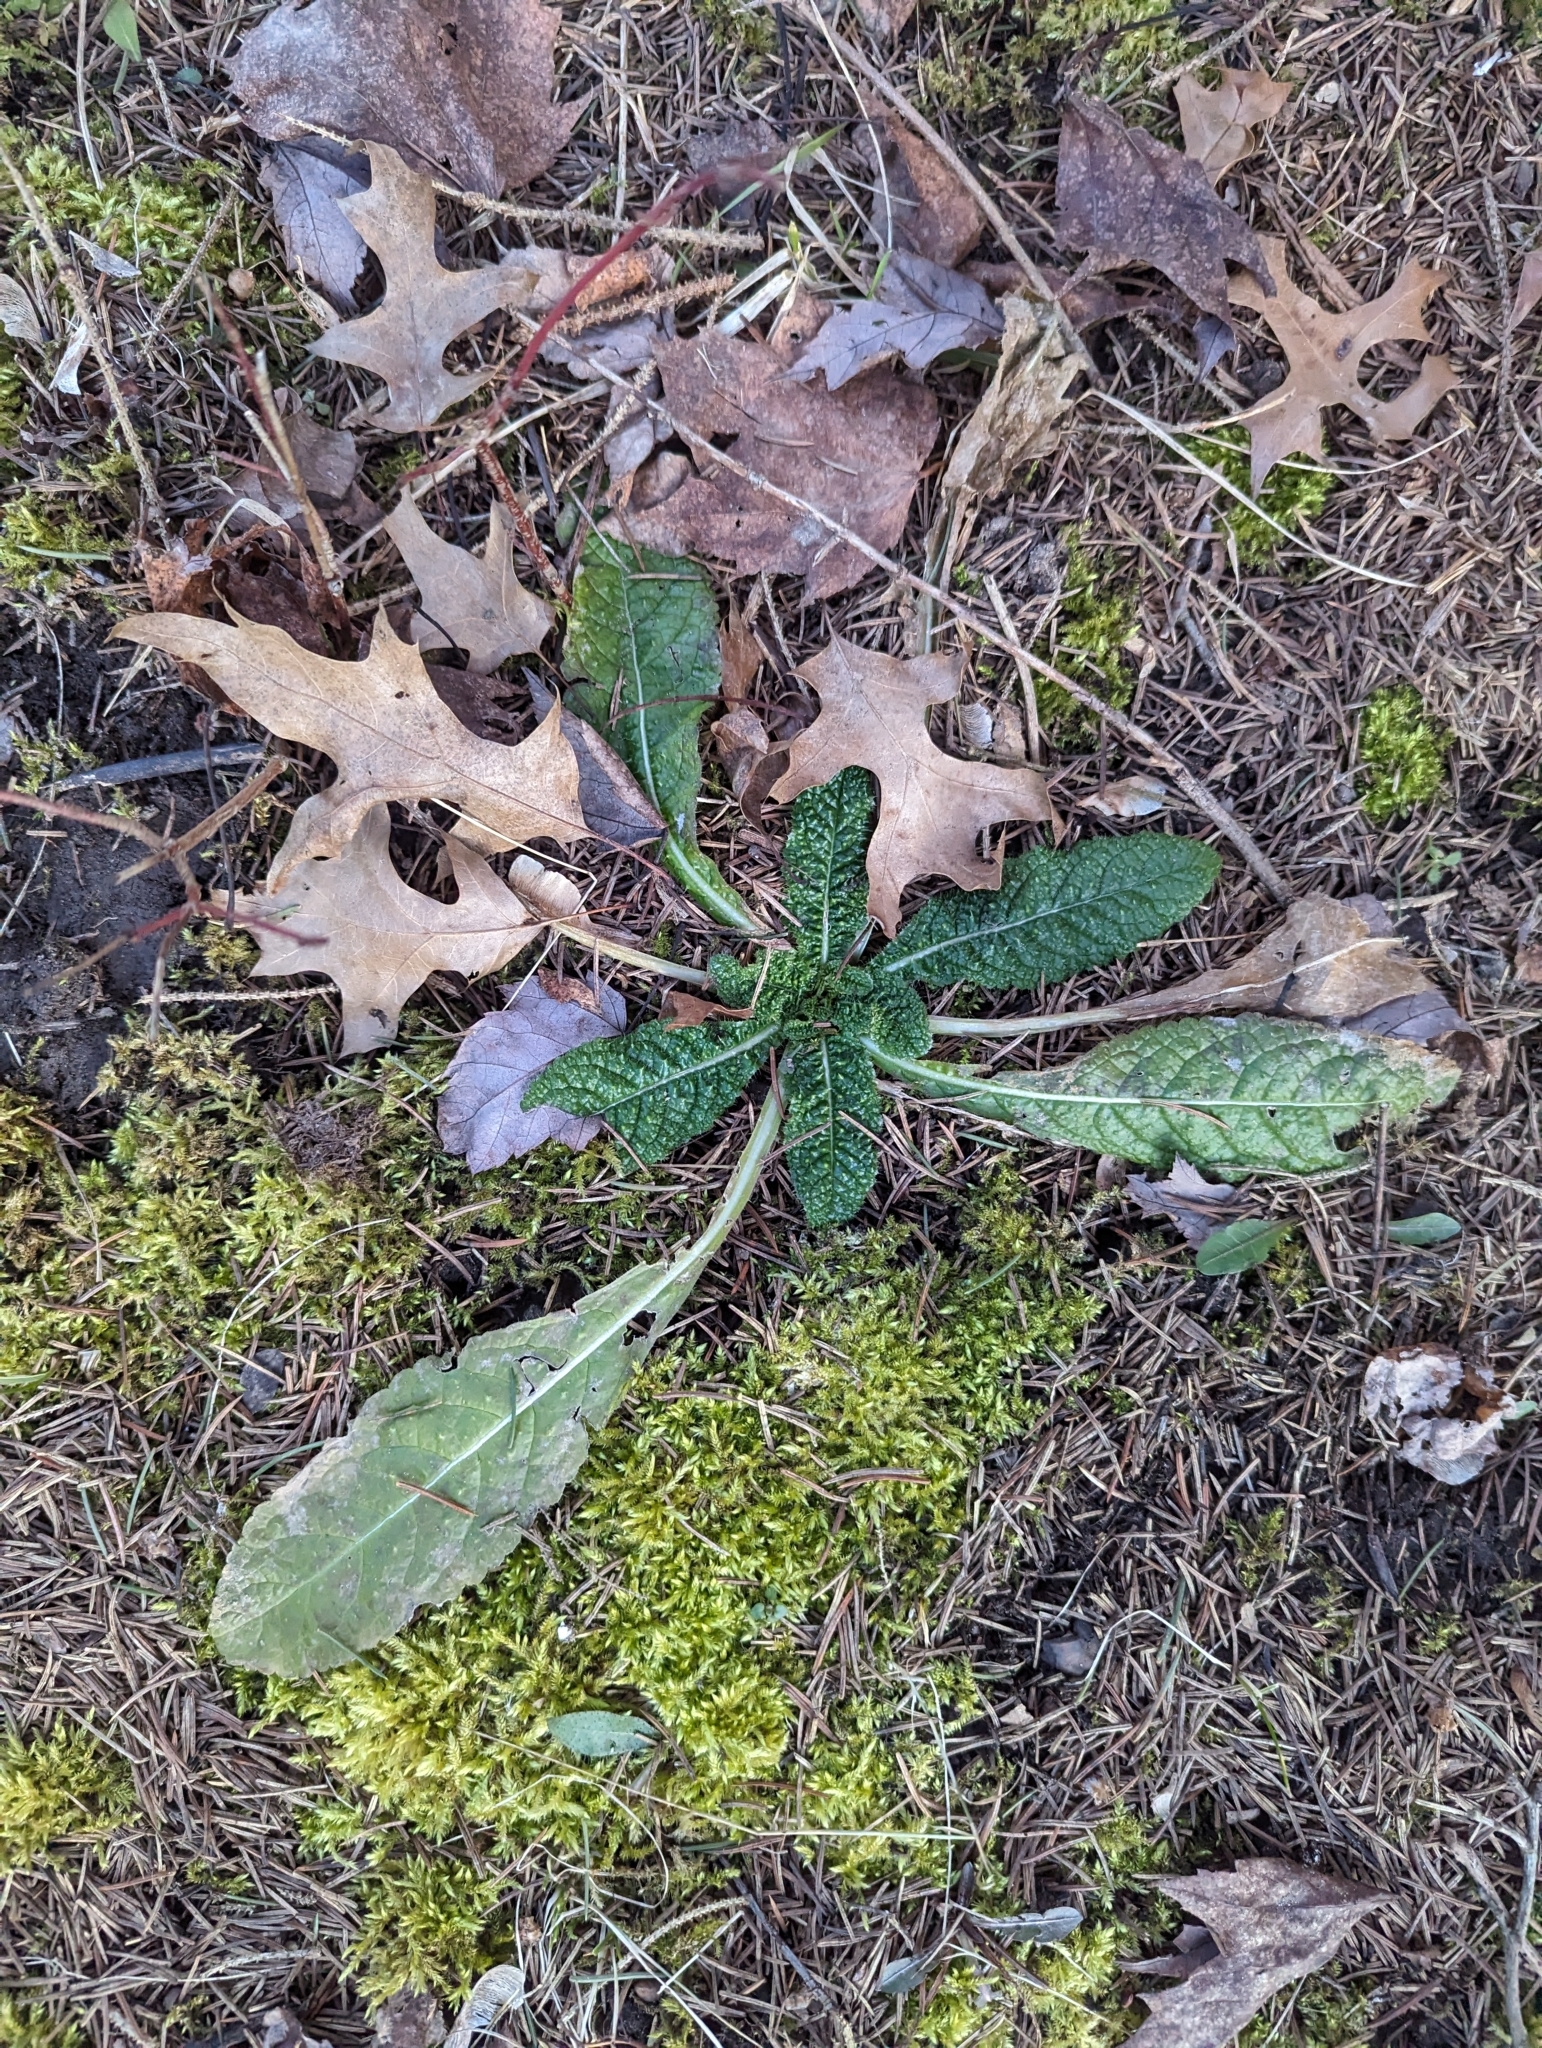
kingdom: Plantae
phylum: Tracheophyta
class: Magnoliopsida
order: Dipsacales
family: Caprifoliaceae
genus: Dipsacus
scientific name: Dipsacus fullonum
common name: Teasel
